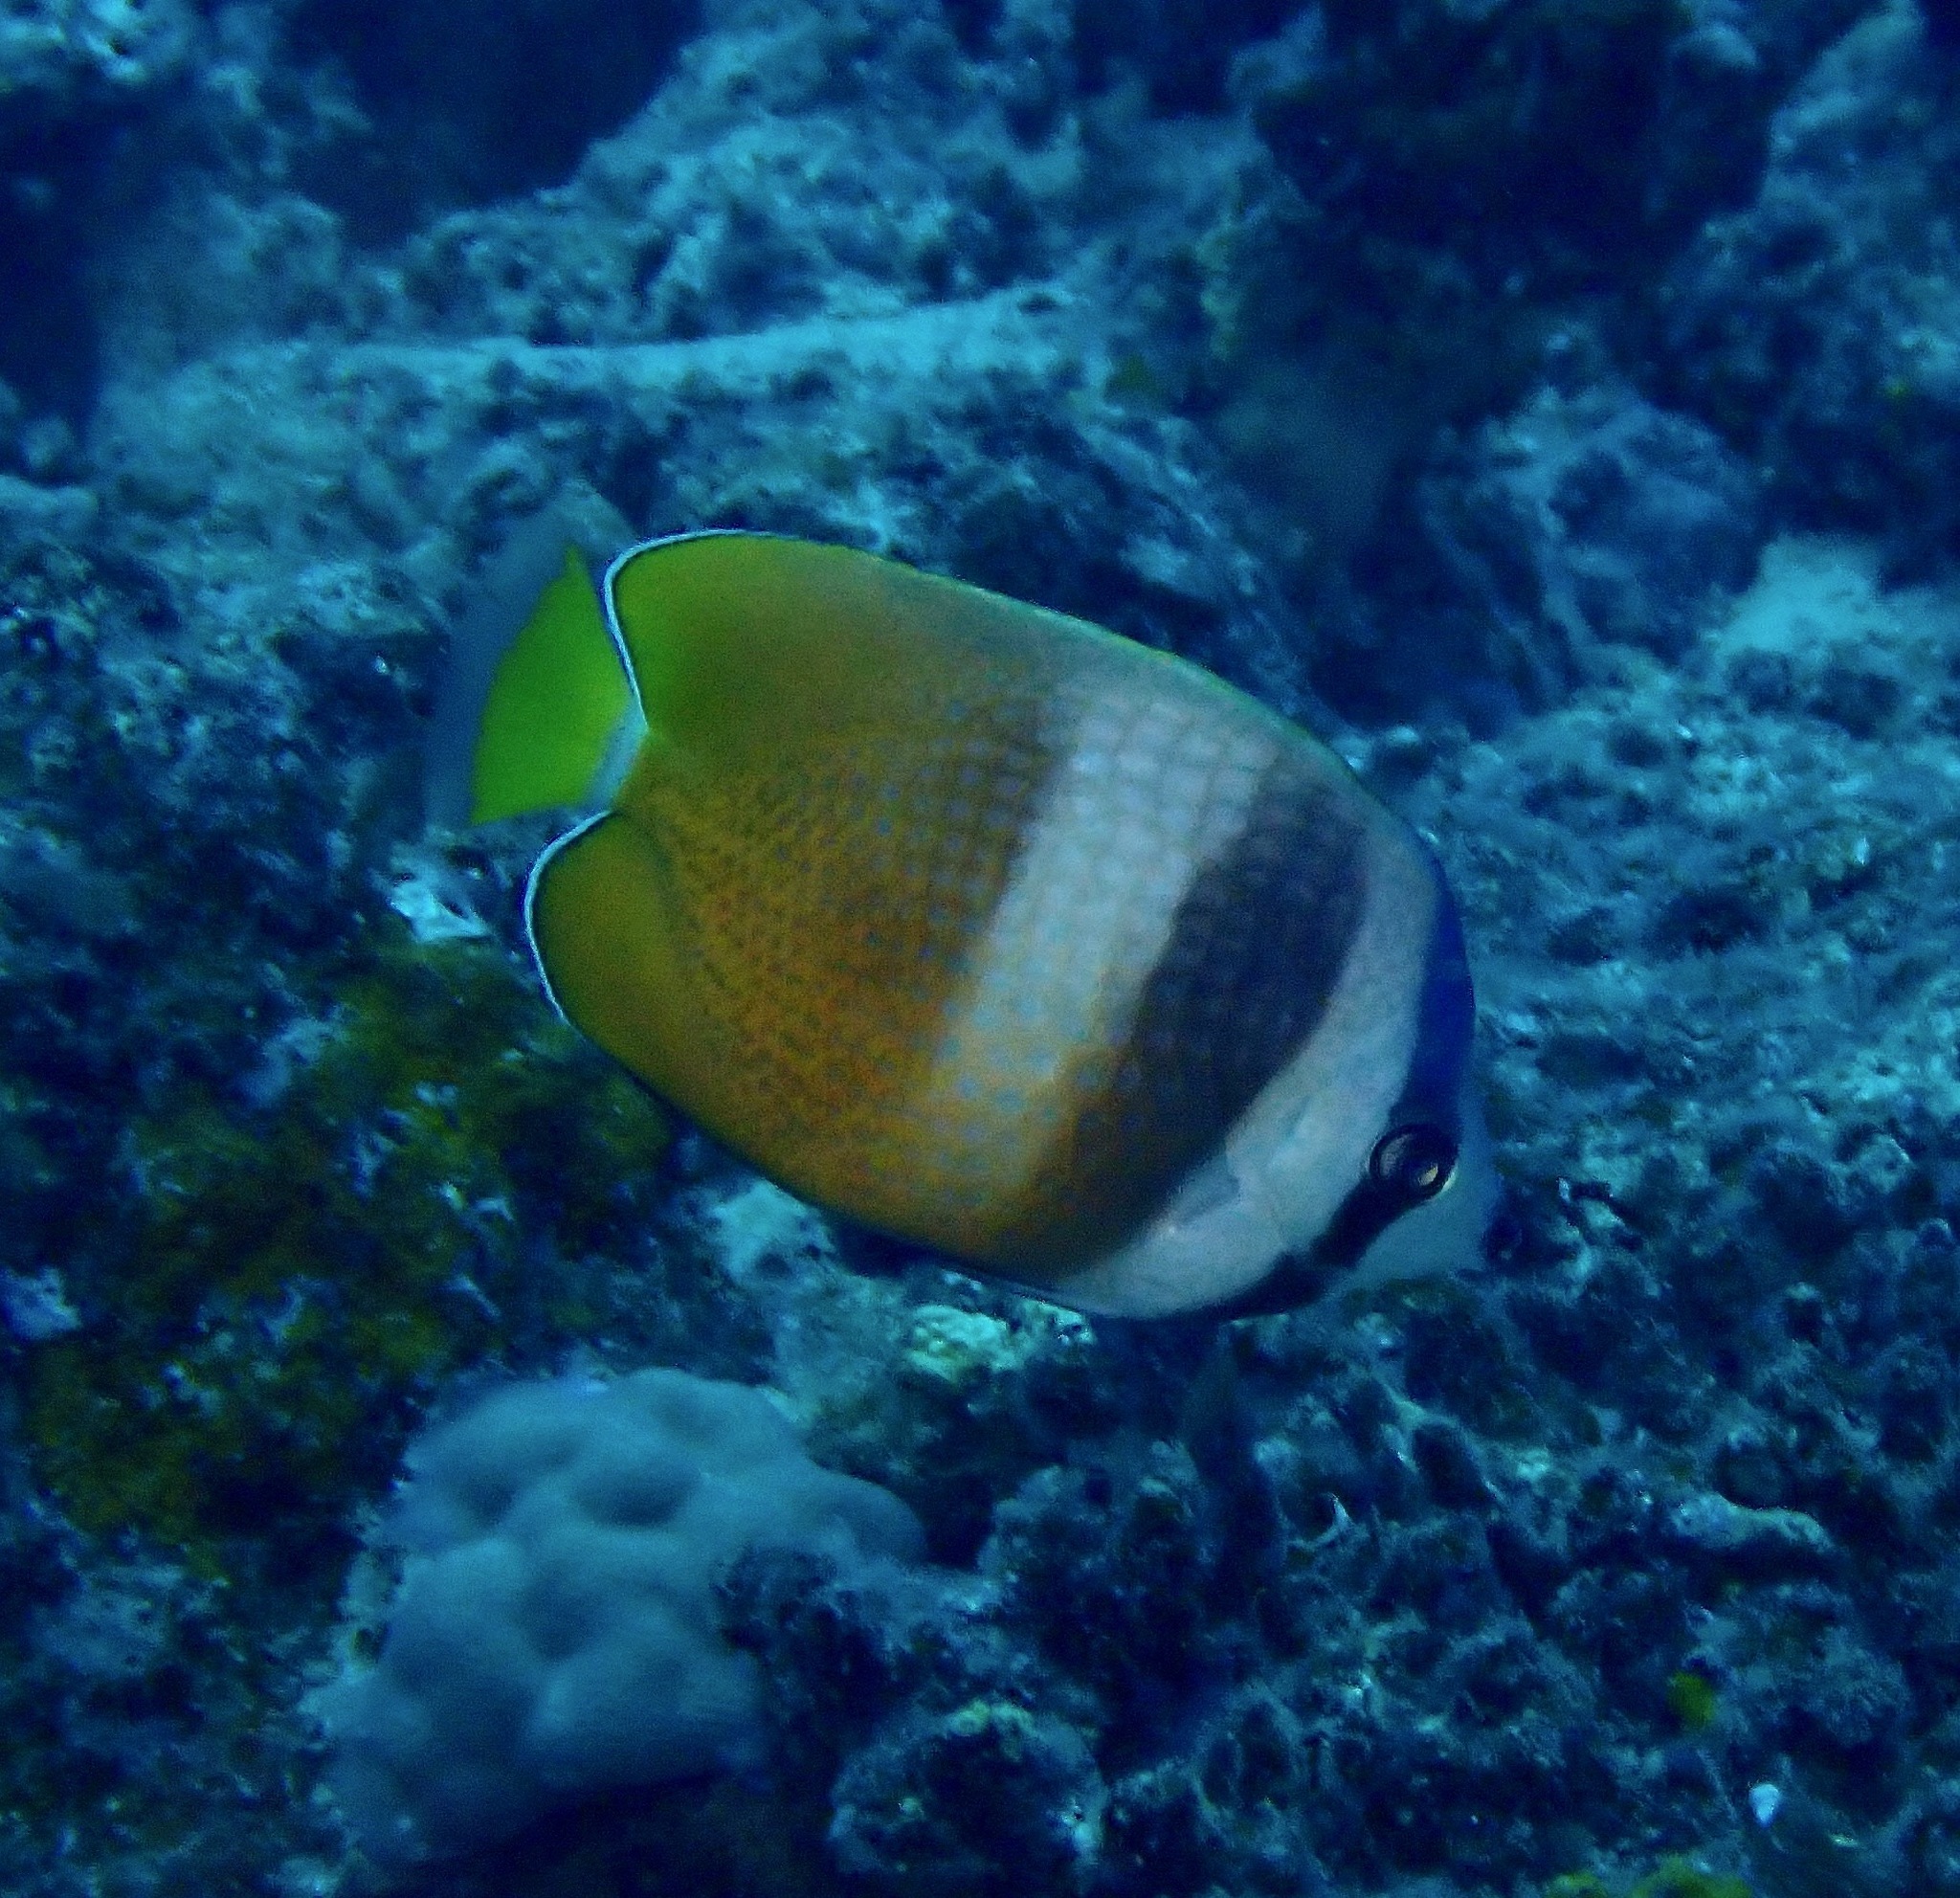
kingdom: Animalia
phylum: Chordata
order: Perciformes
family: Chaetodontidae
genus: Chaetodon
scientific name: Chaetodon kleinii
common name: Klein's butterflyfish
